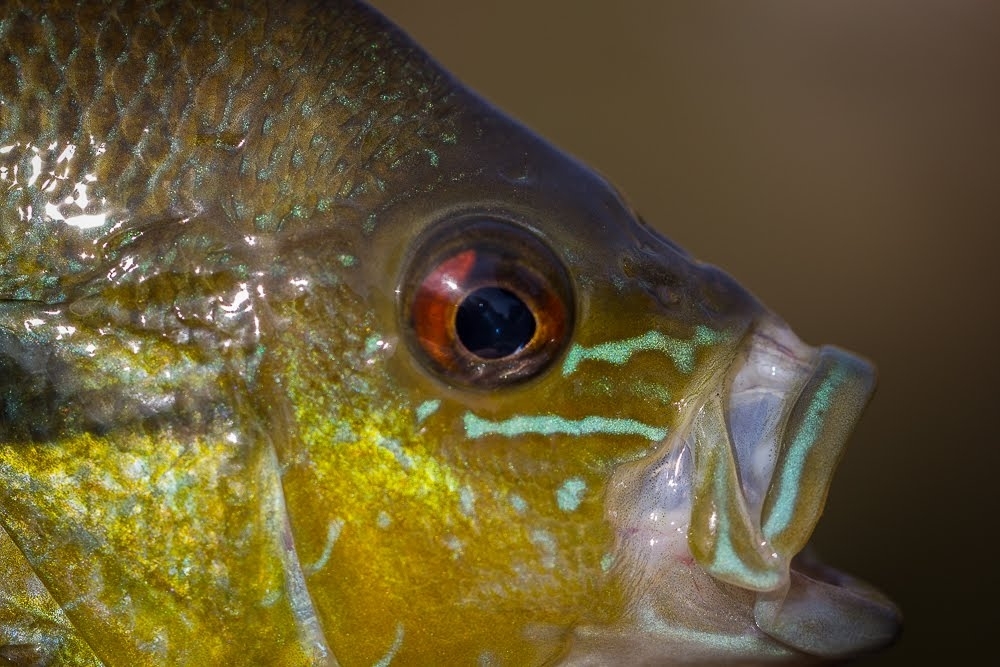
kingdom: Animalia
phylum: Chordata
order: Perciformes
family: Centrarchidae
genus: Lepomis
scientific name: Lepomis auritus
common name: Redbreast sunfish
